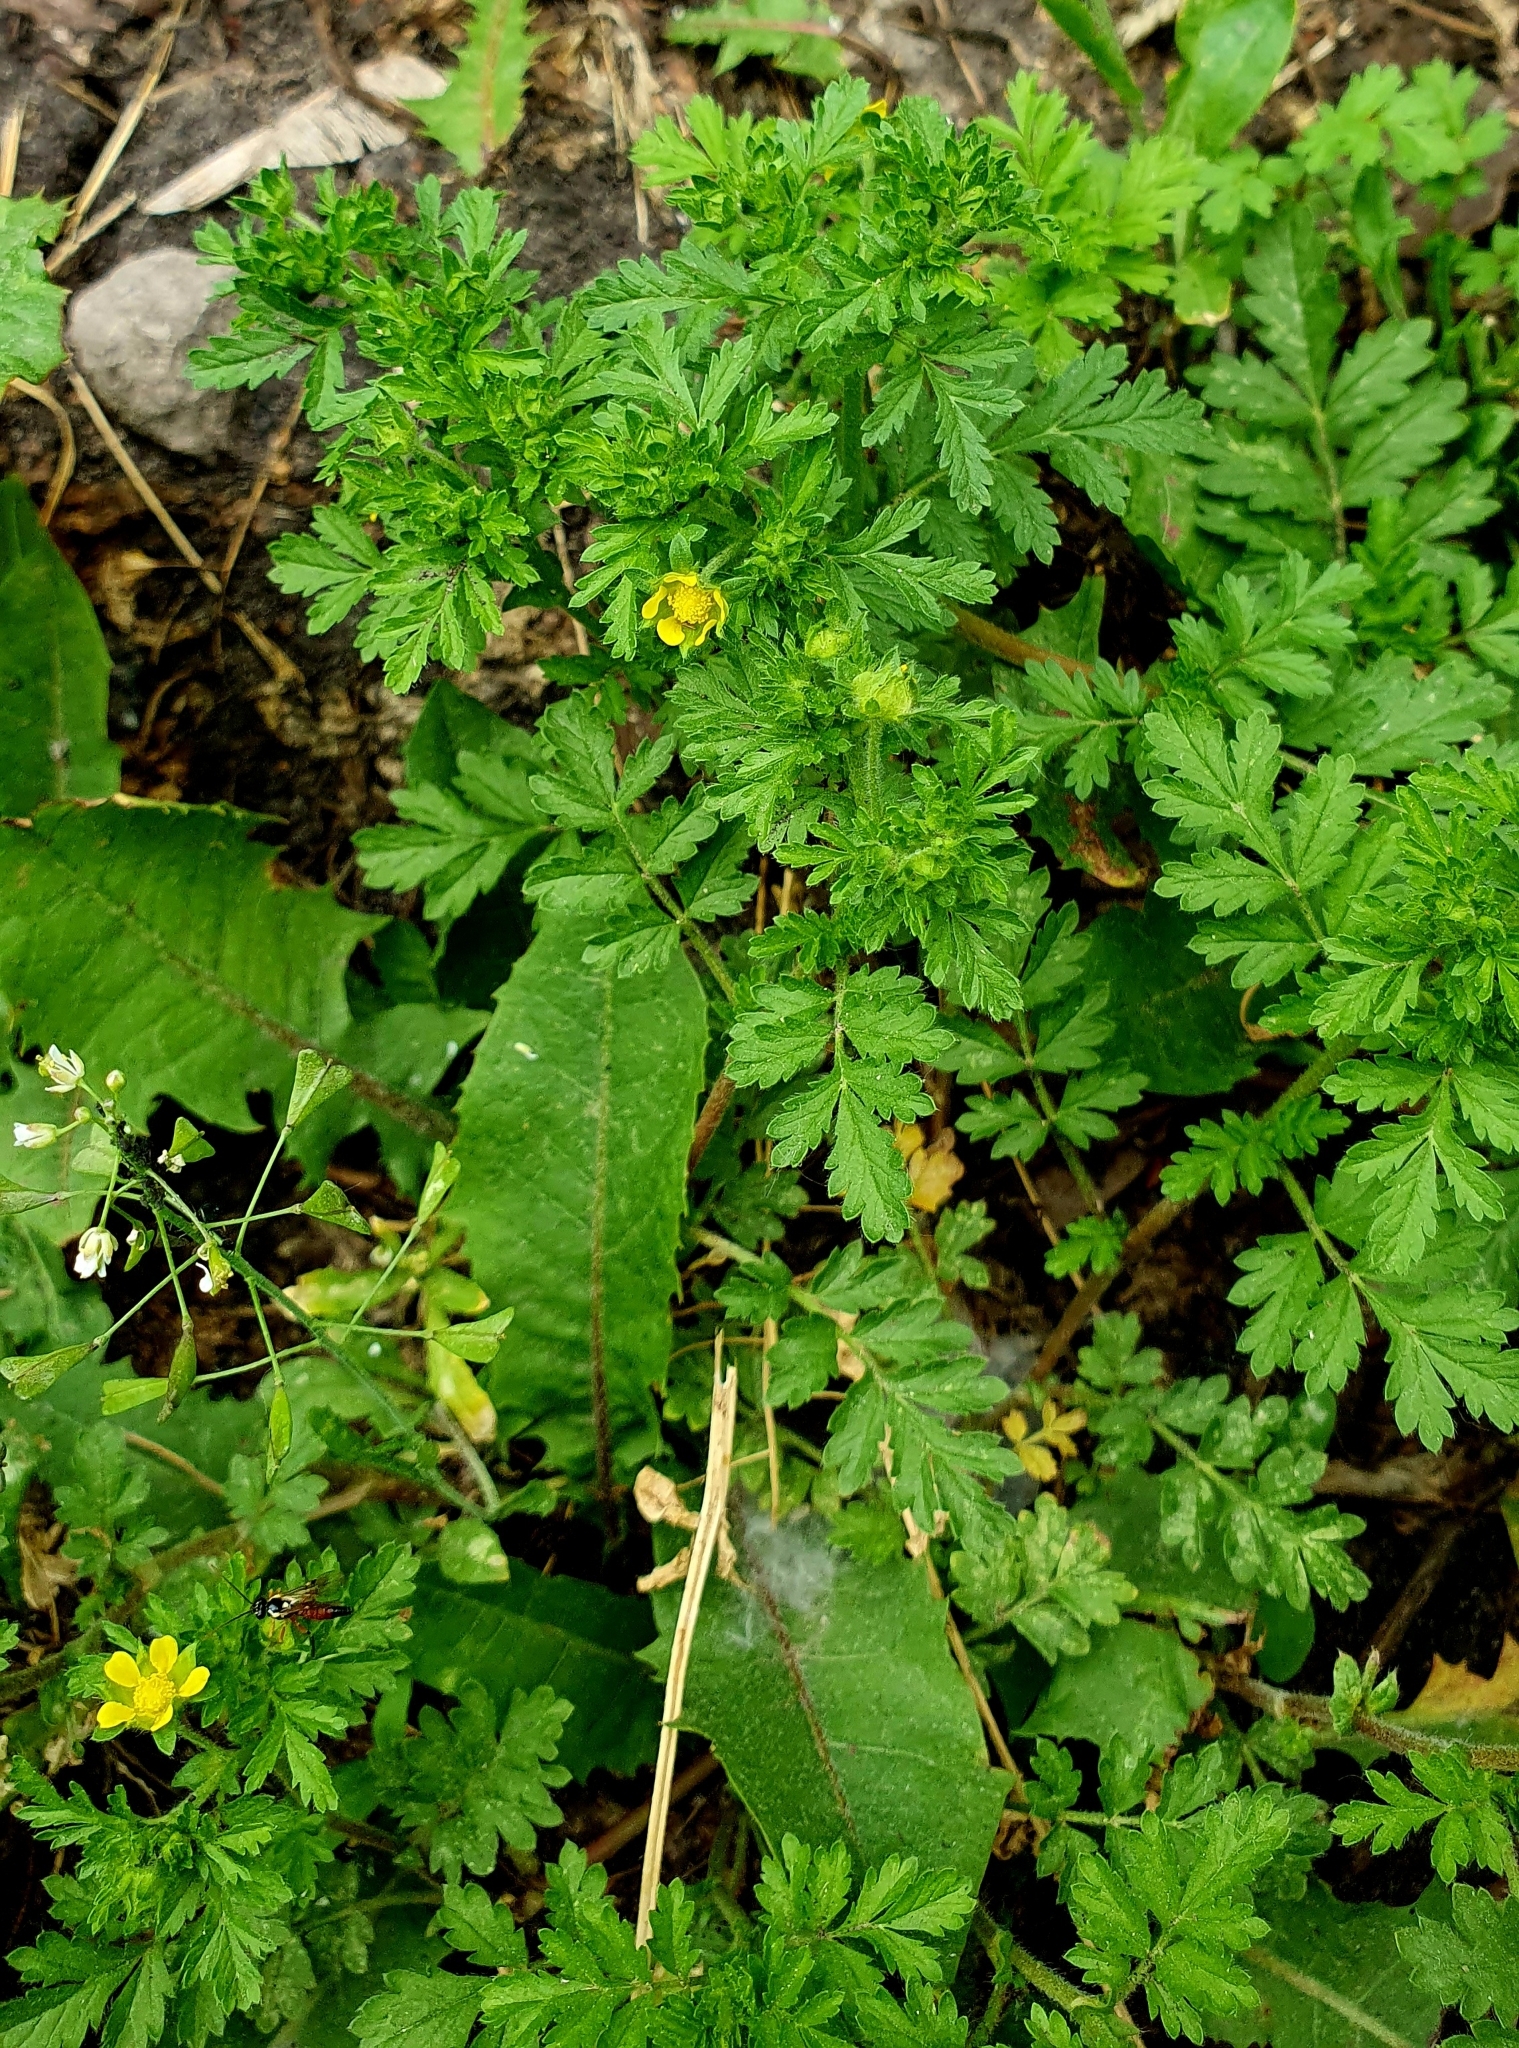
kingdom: Plantae
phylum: Tracheophyta
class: Magnoliopsida
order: Rosales
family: Rosaceae
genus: Potentilla
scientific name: Potentilla supina
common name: Prostrate cinquefoil
